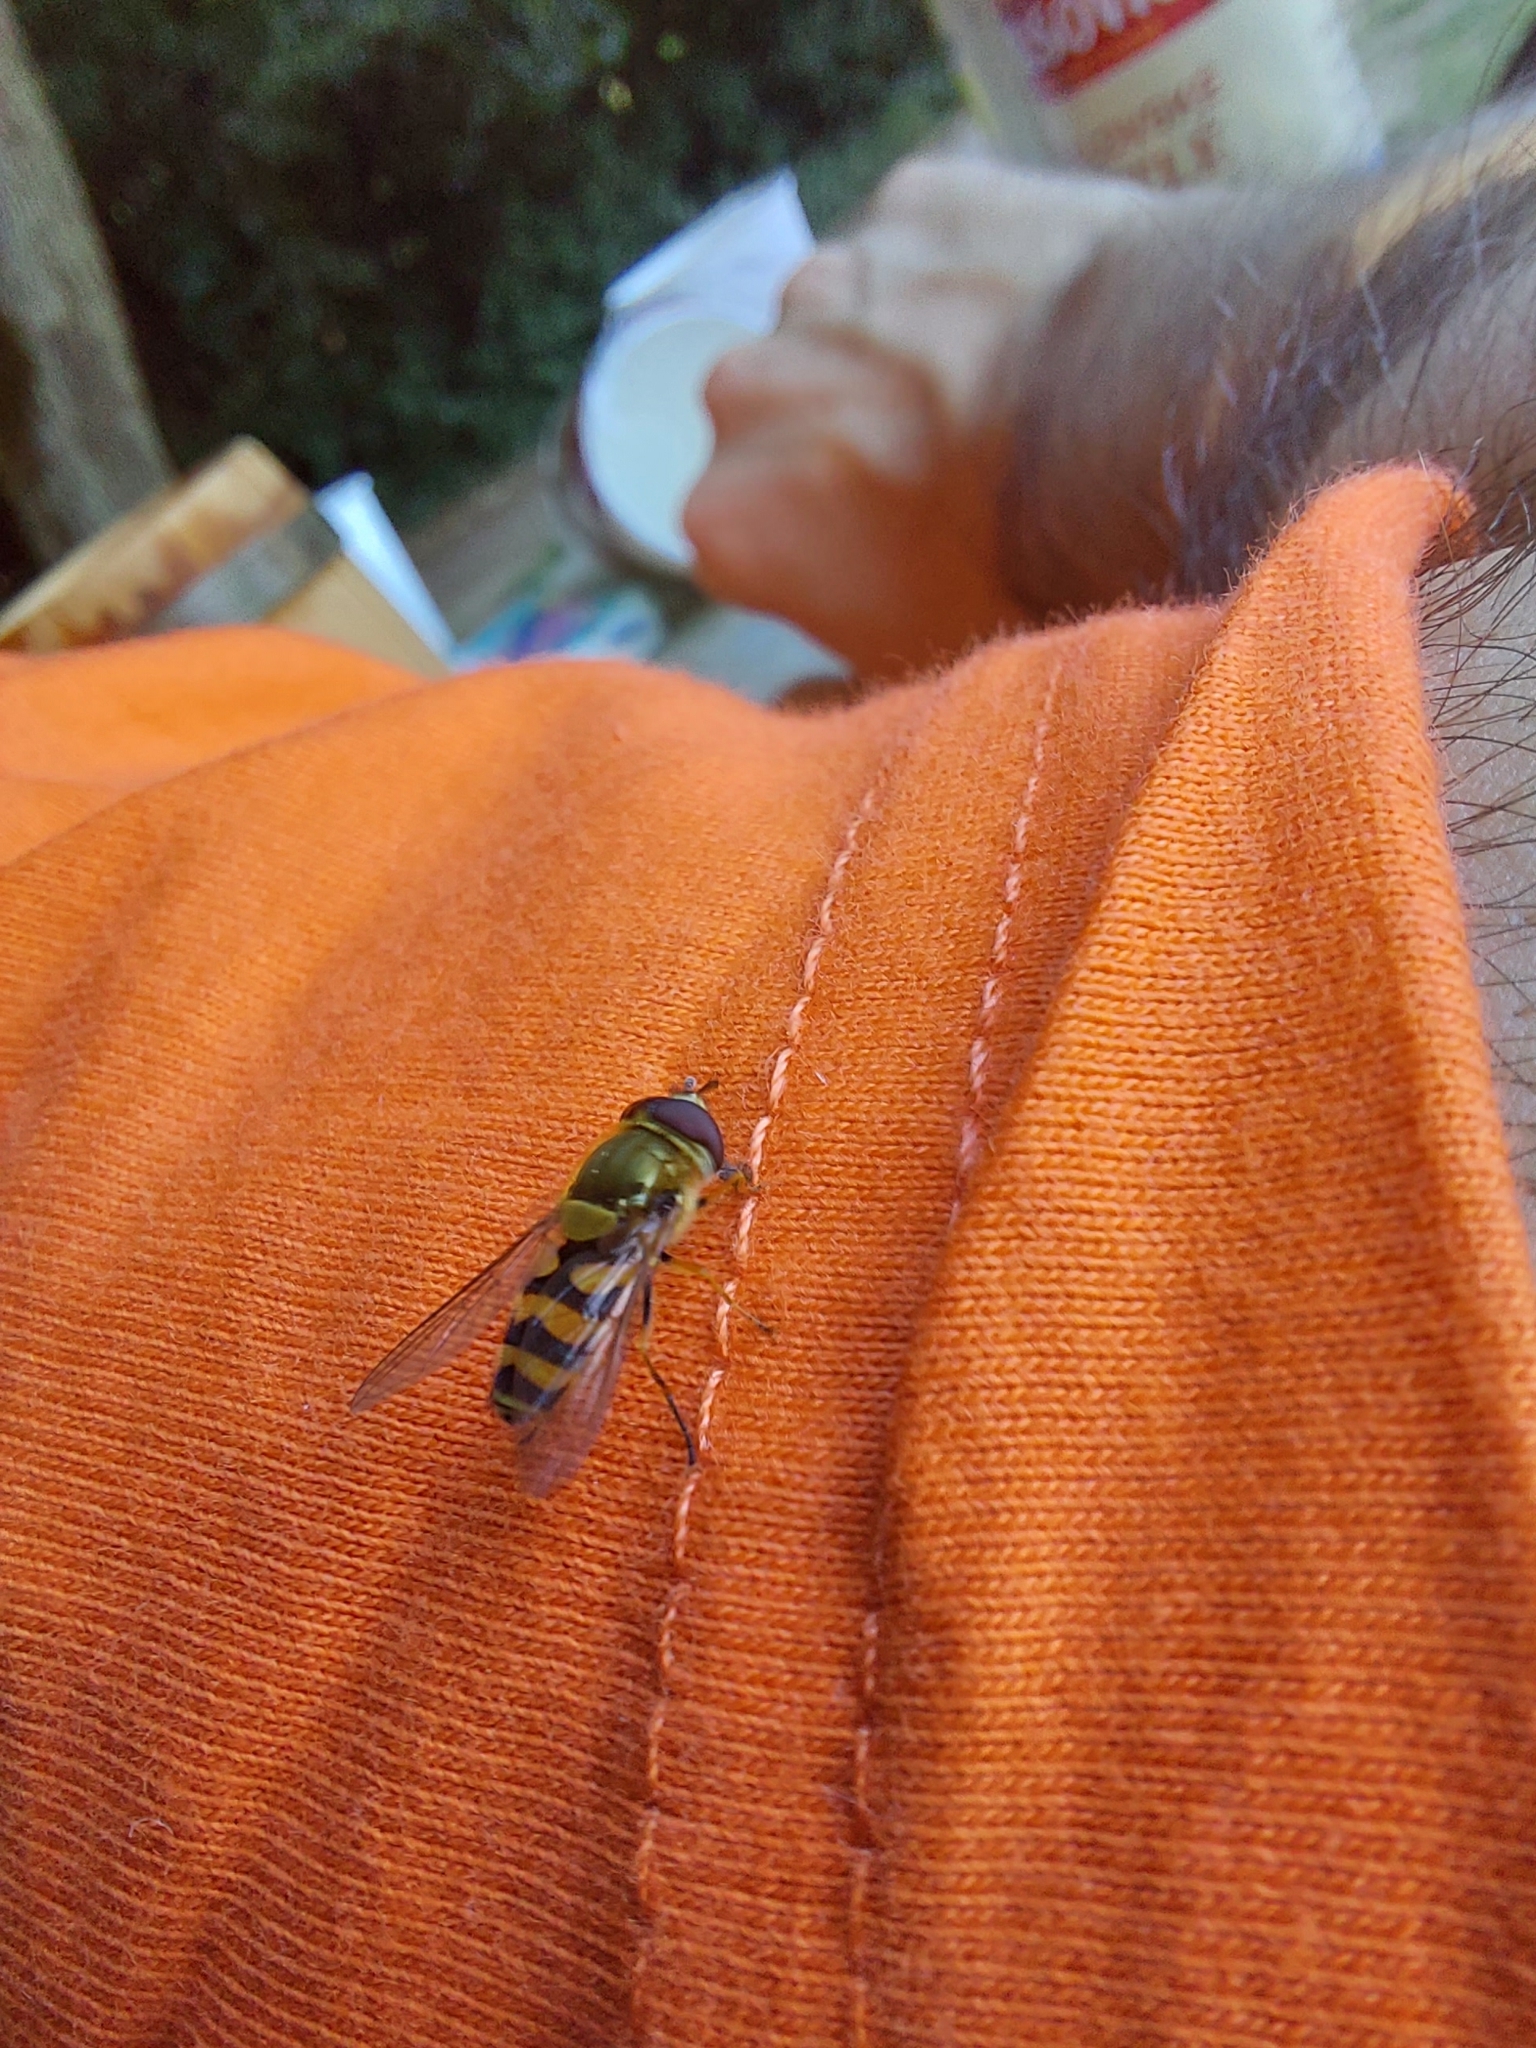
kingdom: Animalia
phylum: Arthropoda
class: Insecta
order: Diptera
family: Syrphidae
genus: Syrphus
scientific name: Syrphus
